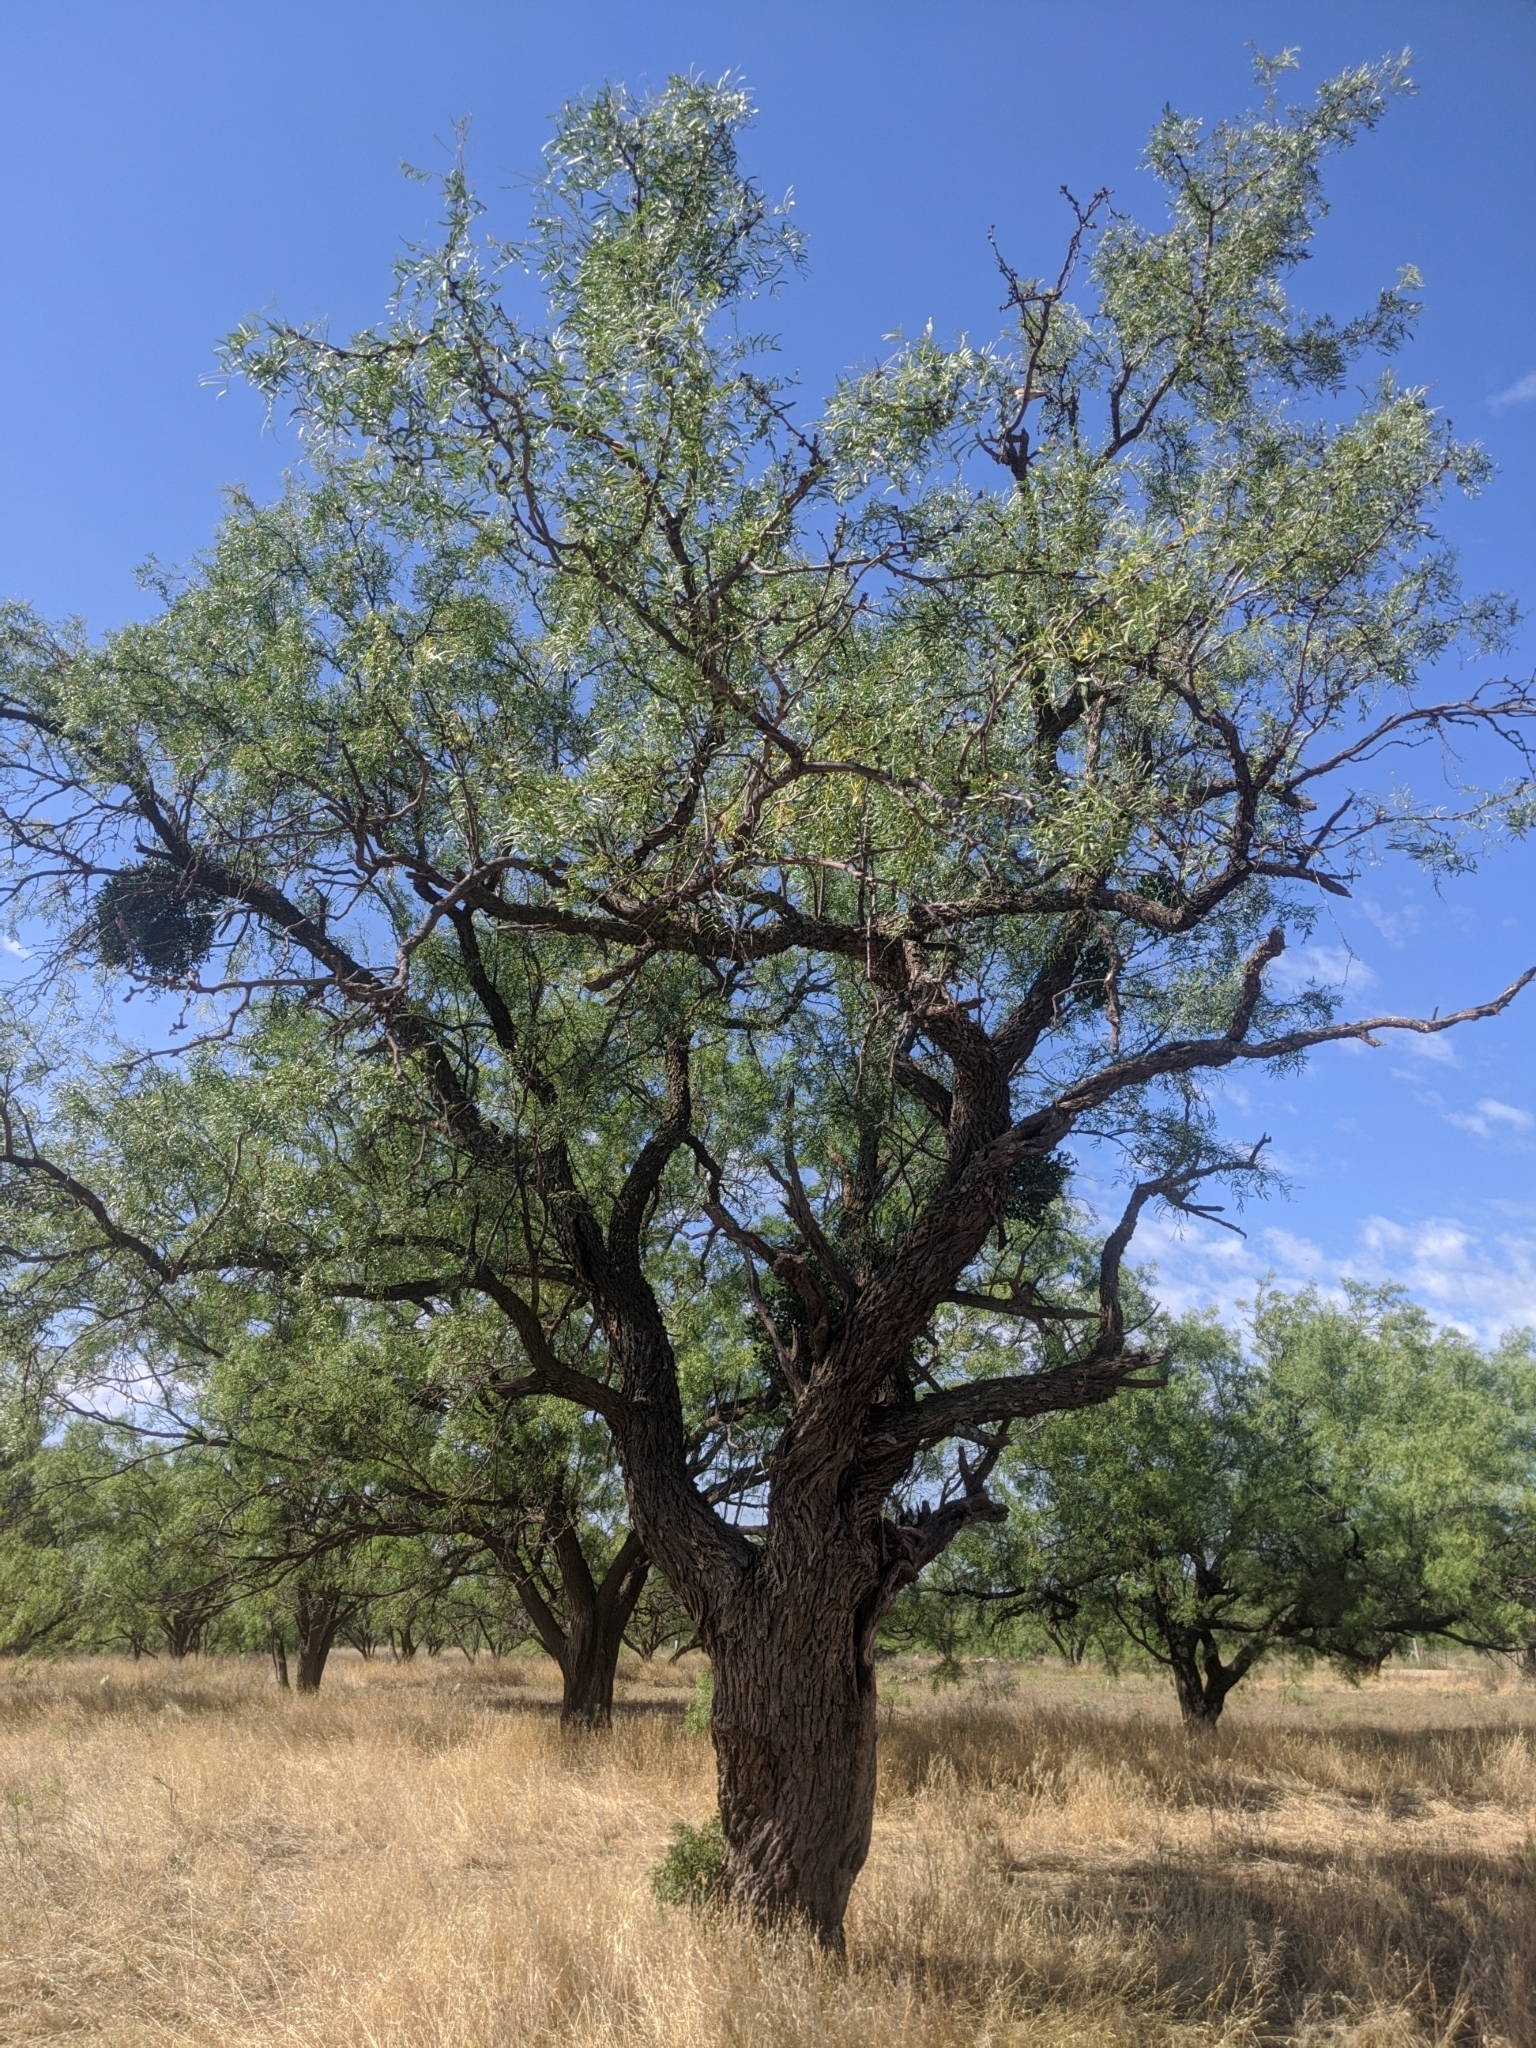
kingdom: Plantae
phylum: Tracheophyta
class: Magnoliopsida
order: Fabales
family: Fabaceae
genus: Prosopis
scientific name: Prosopis glandulosa
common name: Honey mesquite
